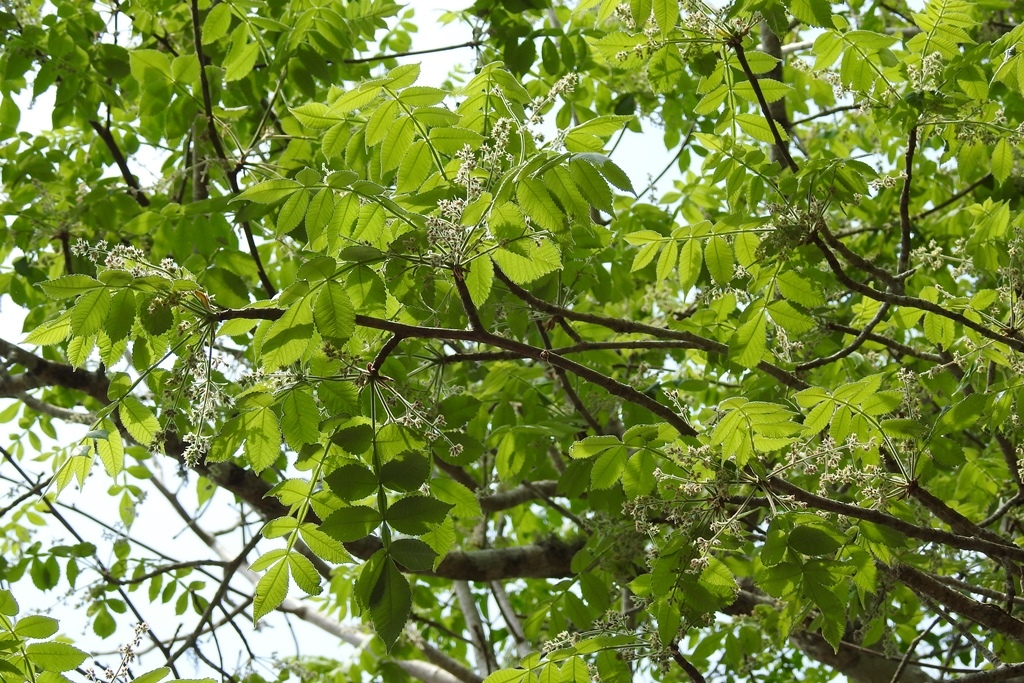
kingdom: Plantae
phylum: Tracheophyta
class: Magnoliopsida
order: Sapindales
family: Burseraceae
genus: Bursera
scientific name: Bursera excelsa
